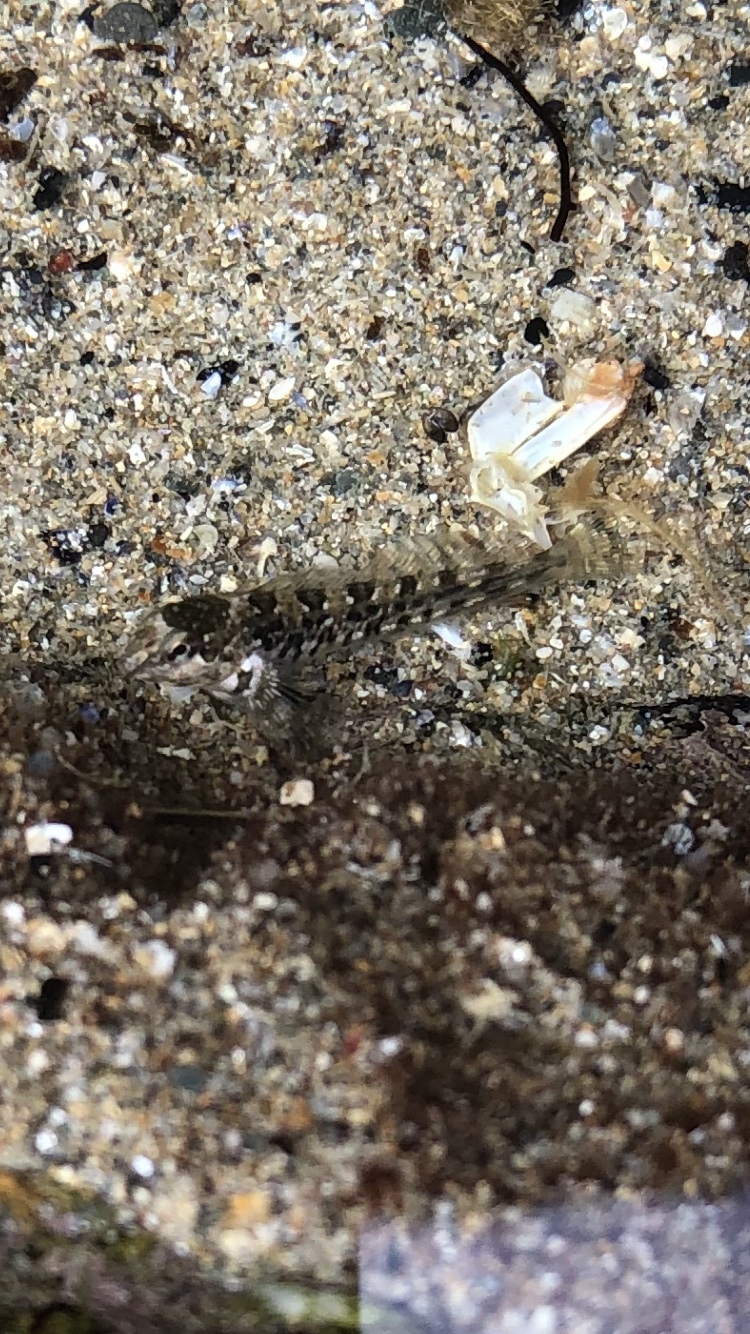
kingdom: Animalia
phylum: Chordata
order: Perciformes
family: Blenniidae
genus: Lipophrys
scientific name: Lipophrys pholis
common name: Shanny
